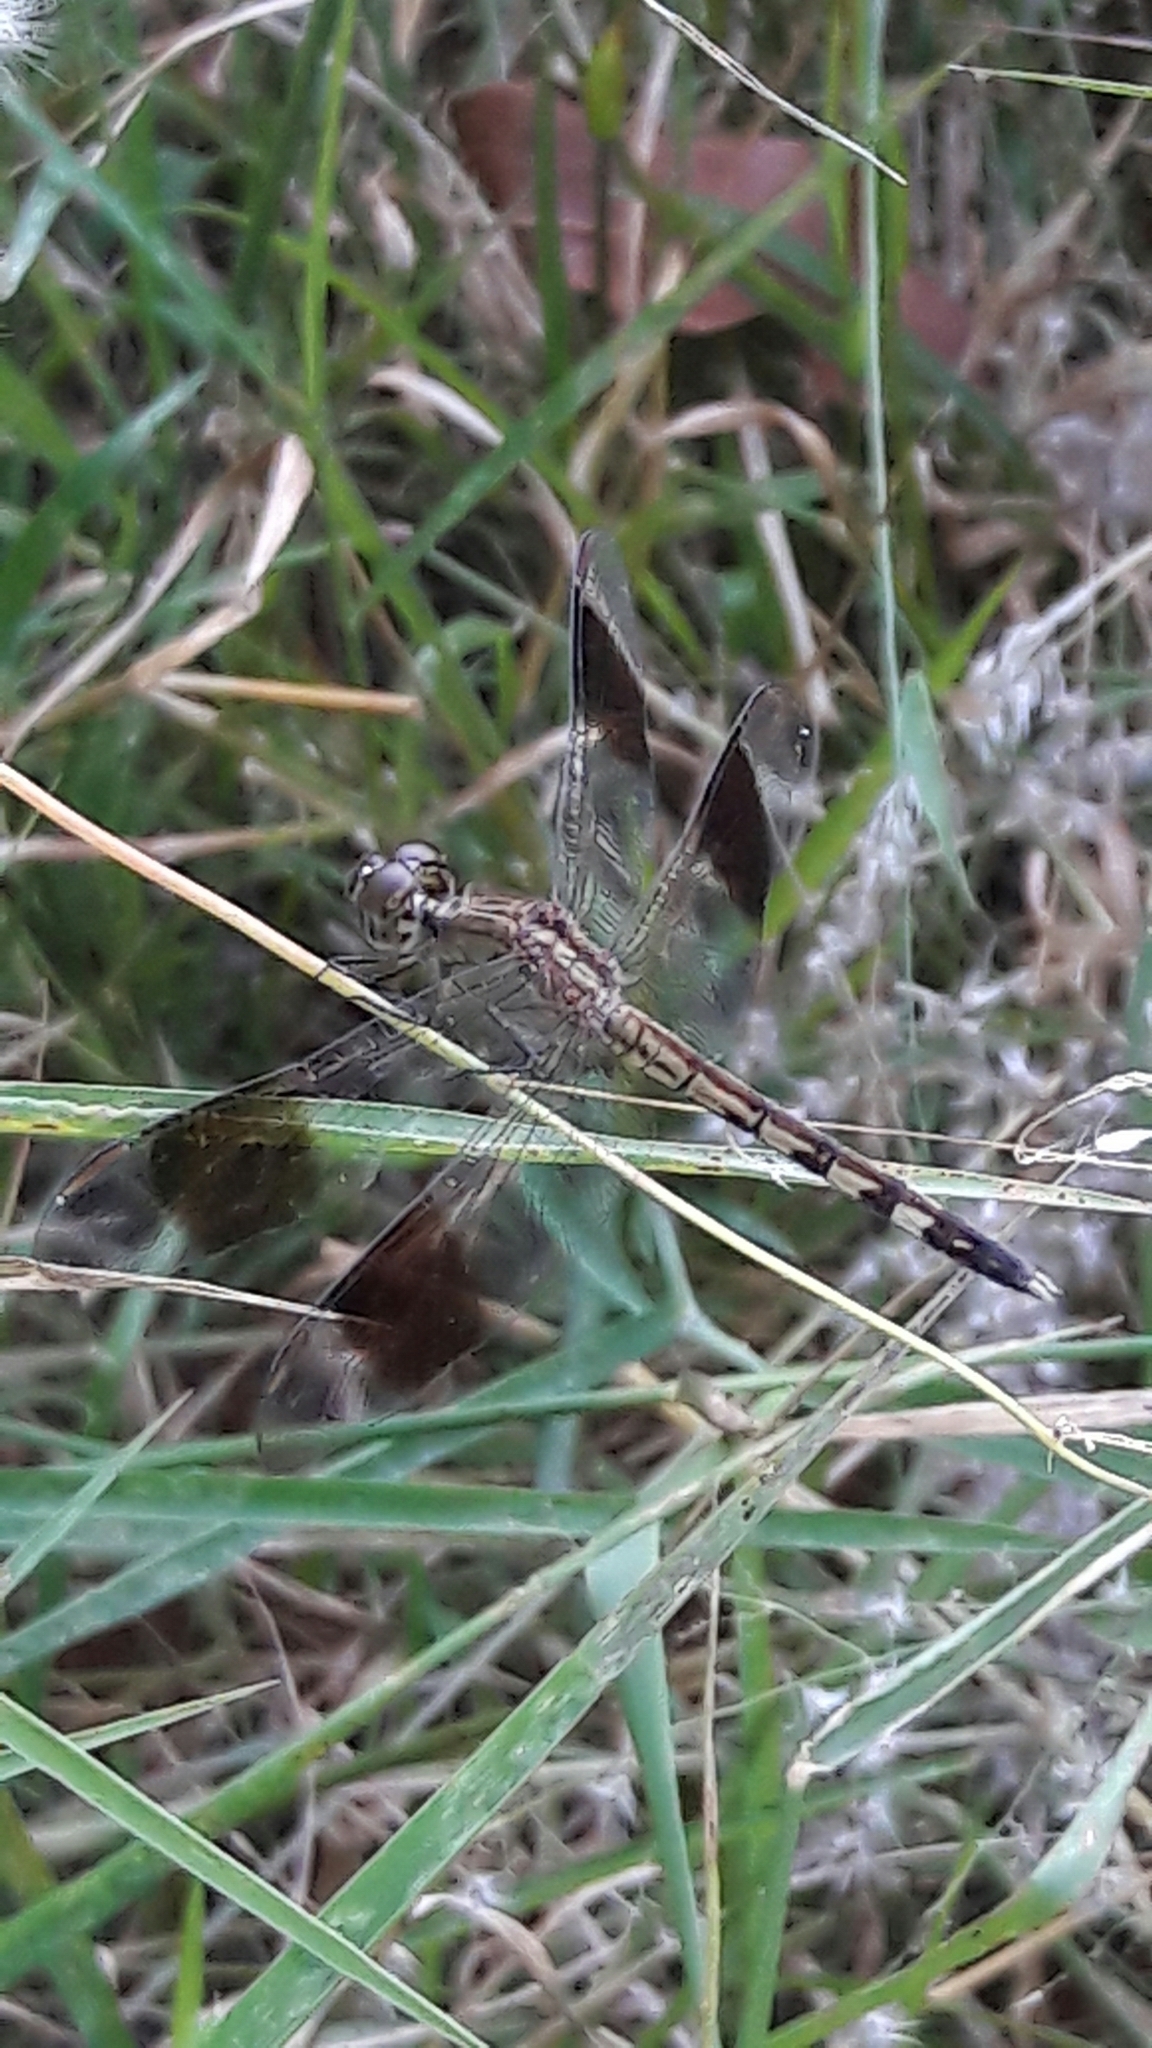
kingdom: Animalia
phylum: Arthropoda
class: Insecta
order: Odonata
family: Libellulidae
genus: Erythrodiplax
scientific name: Erythrodiplax umbrata
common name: Band-winged dragonlet
